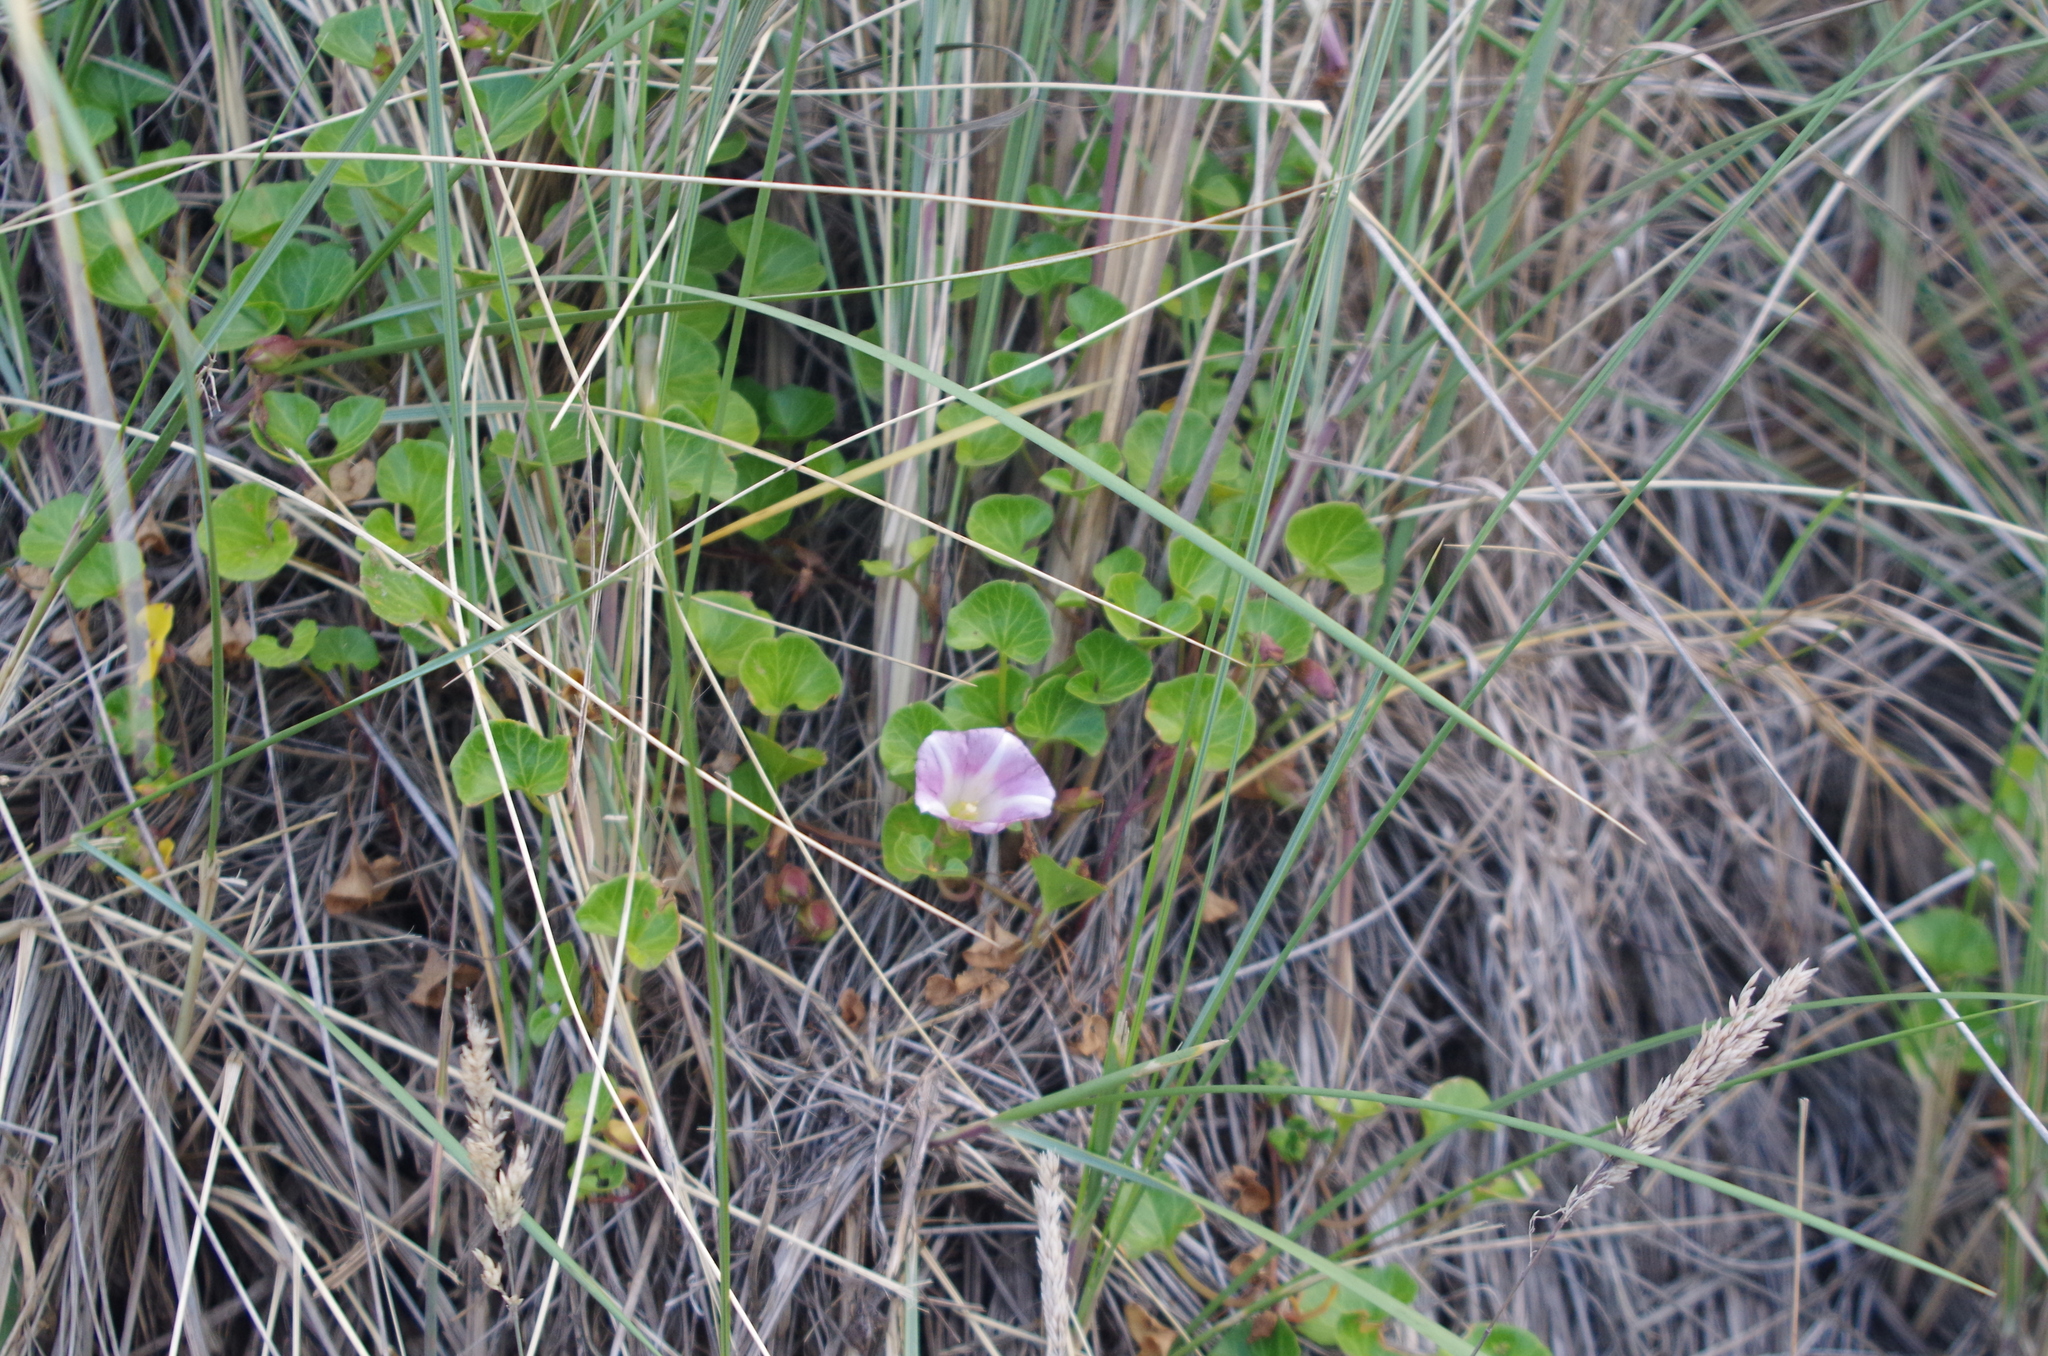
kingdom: Plantae
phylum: Tracheophyta
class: Magnoliopsida
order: Solanales
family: Convolvulaceae
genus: Calystegia
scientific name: Calystegia soldanella
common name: Sea bindweed
